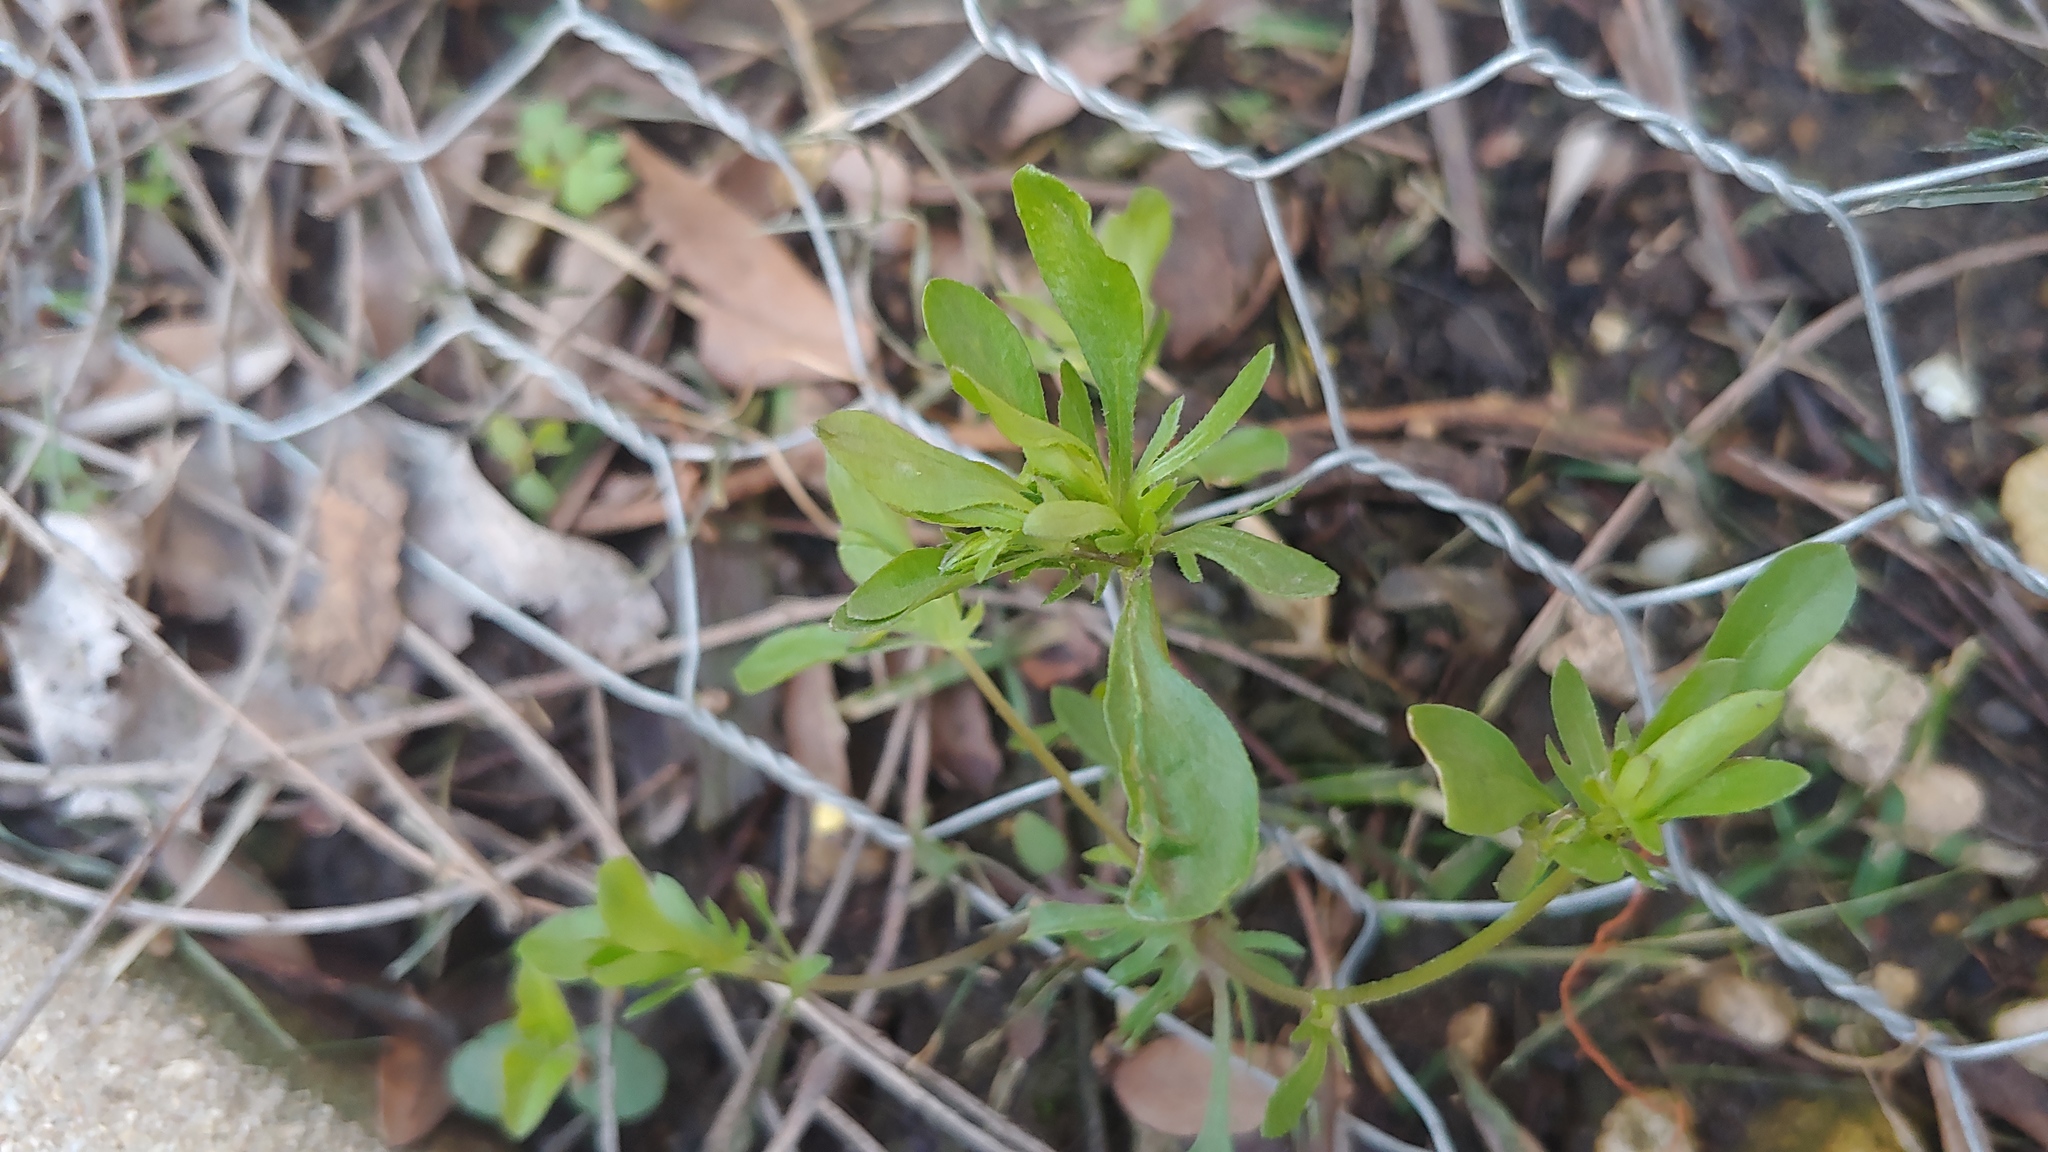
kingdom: Plantae
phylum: Tracheophyta
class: Magnoliopsida
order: Malpighiales
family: Violaceae
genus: Viola
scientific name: Viola rafinesquei
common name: American field pansy
